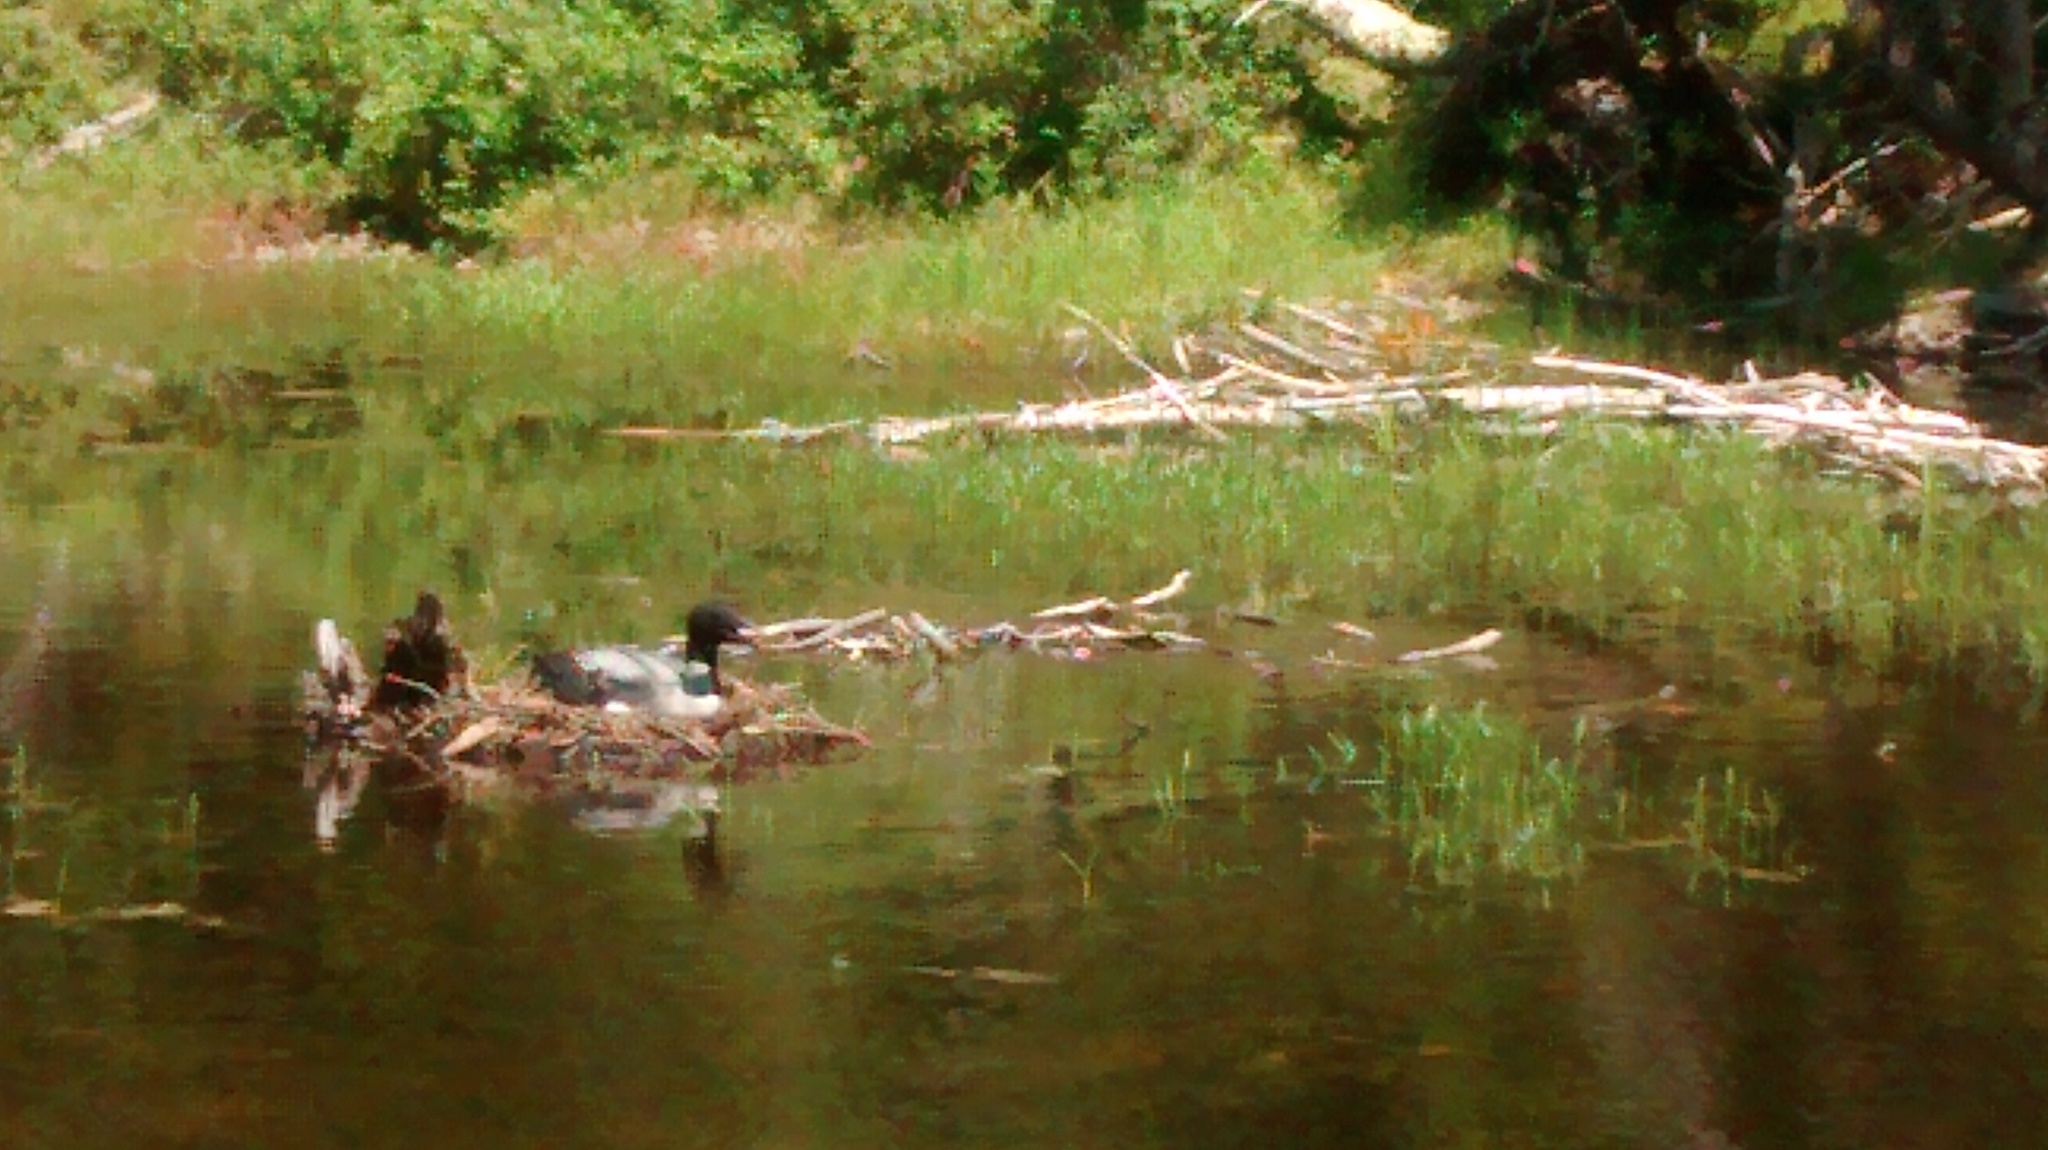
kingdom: Animalia
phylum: Chordata
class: Aves
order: Gaviiformes
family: Gaviidae
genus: Gavia
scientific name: Gavia immer
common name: Common loon
